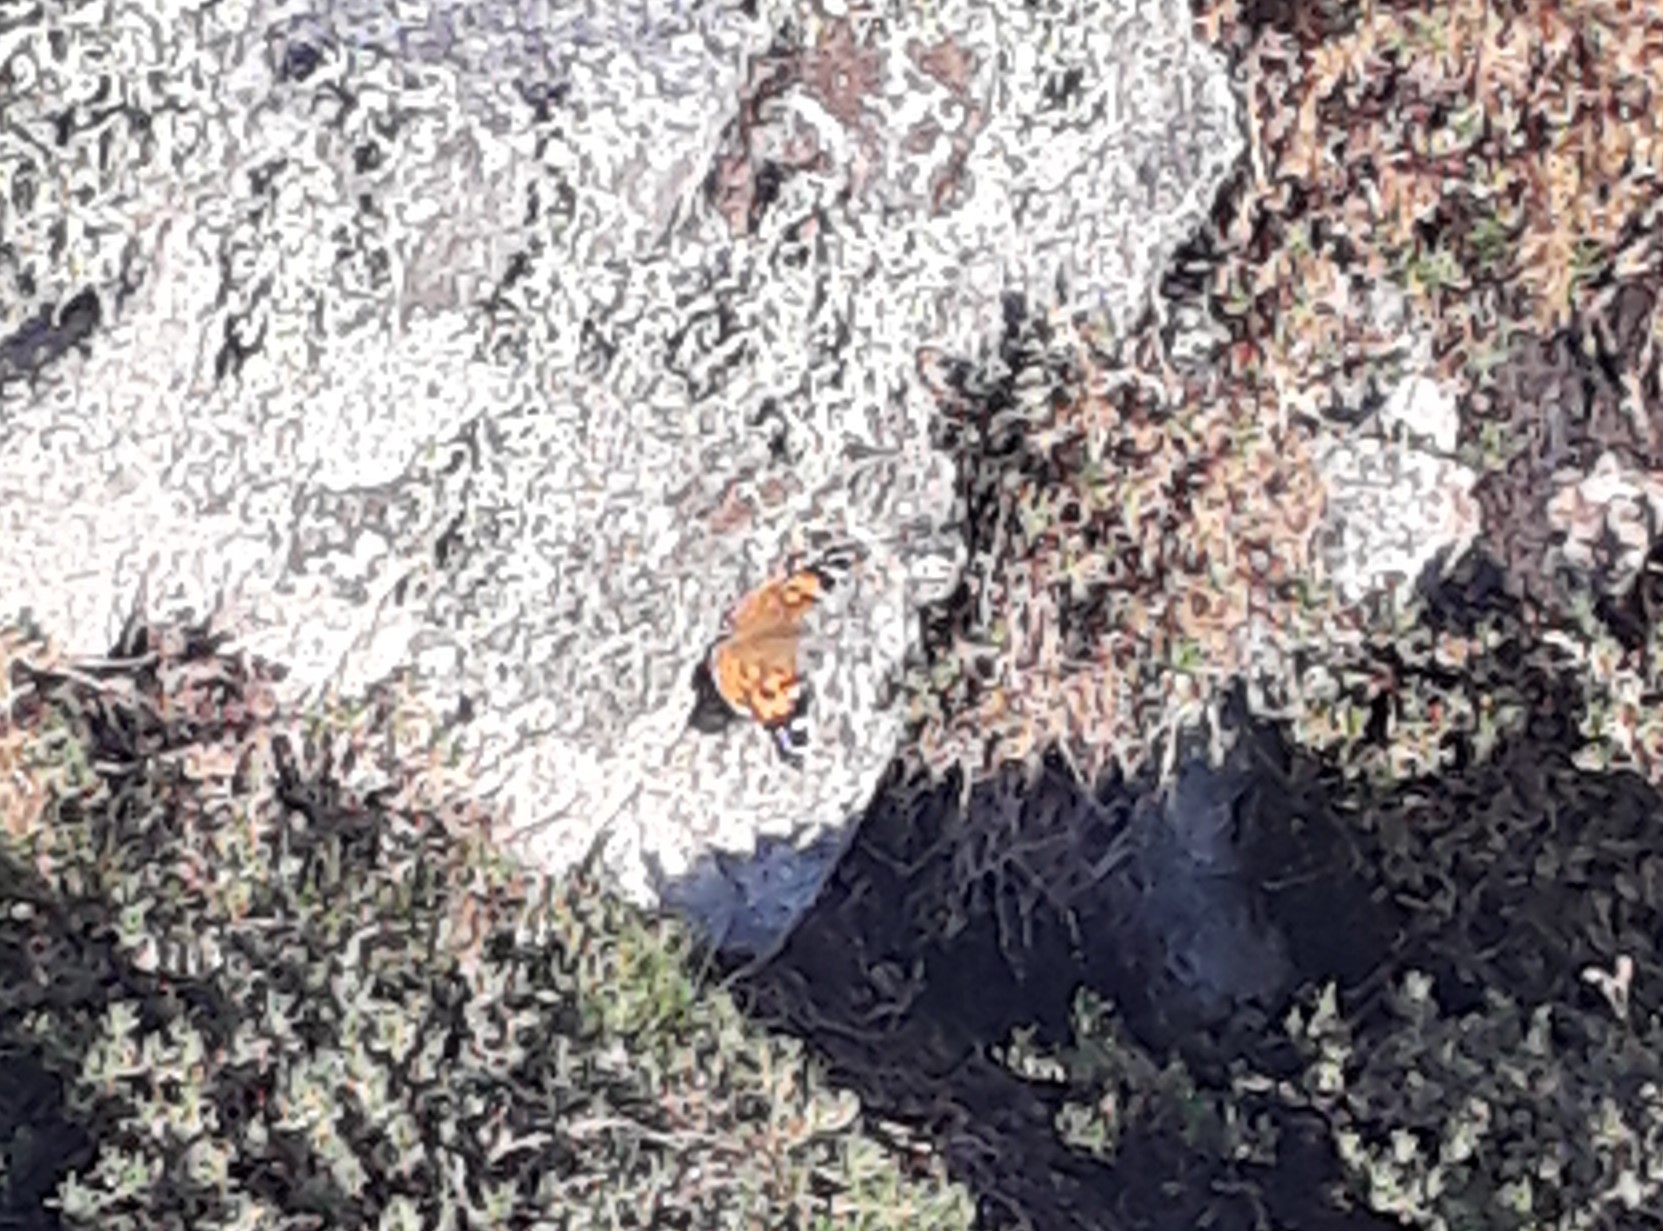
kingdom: Animalia
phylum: Arthropoda
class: Insecta
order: Lepidoptera
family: Nymphalidae
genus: Vanessa
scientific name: Vanessa cardui
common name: Painted lady
